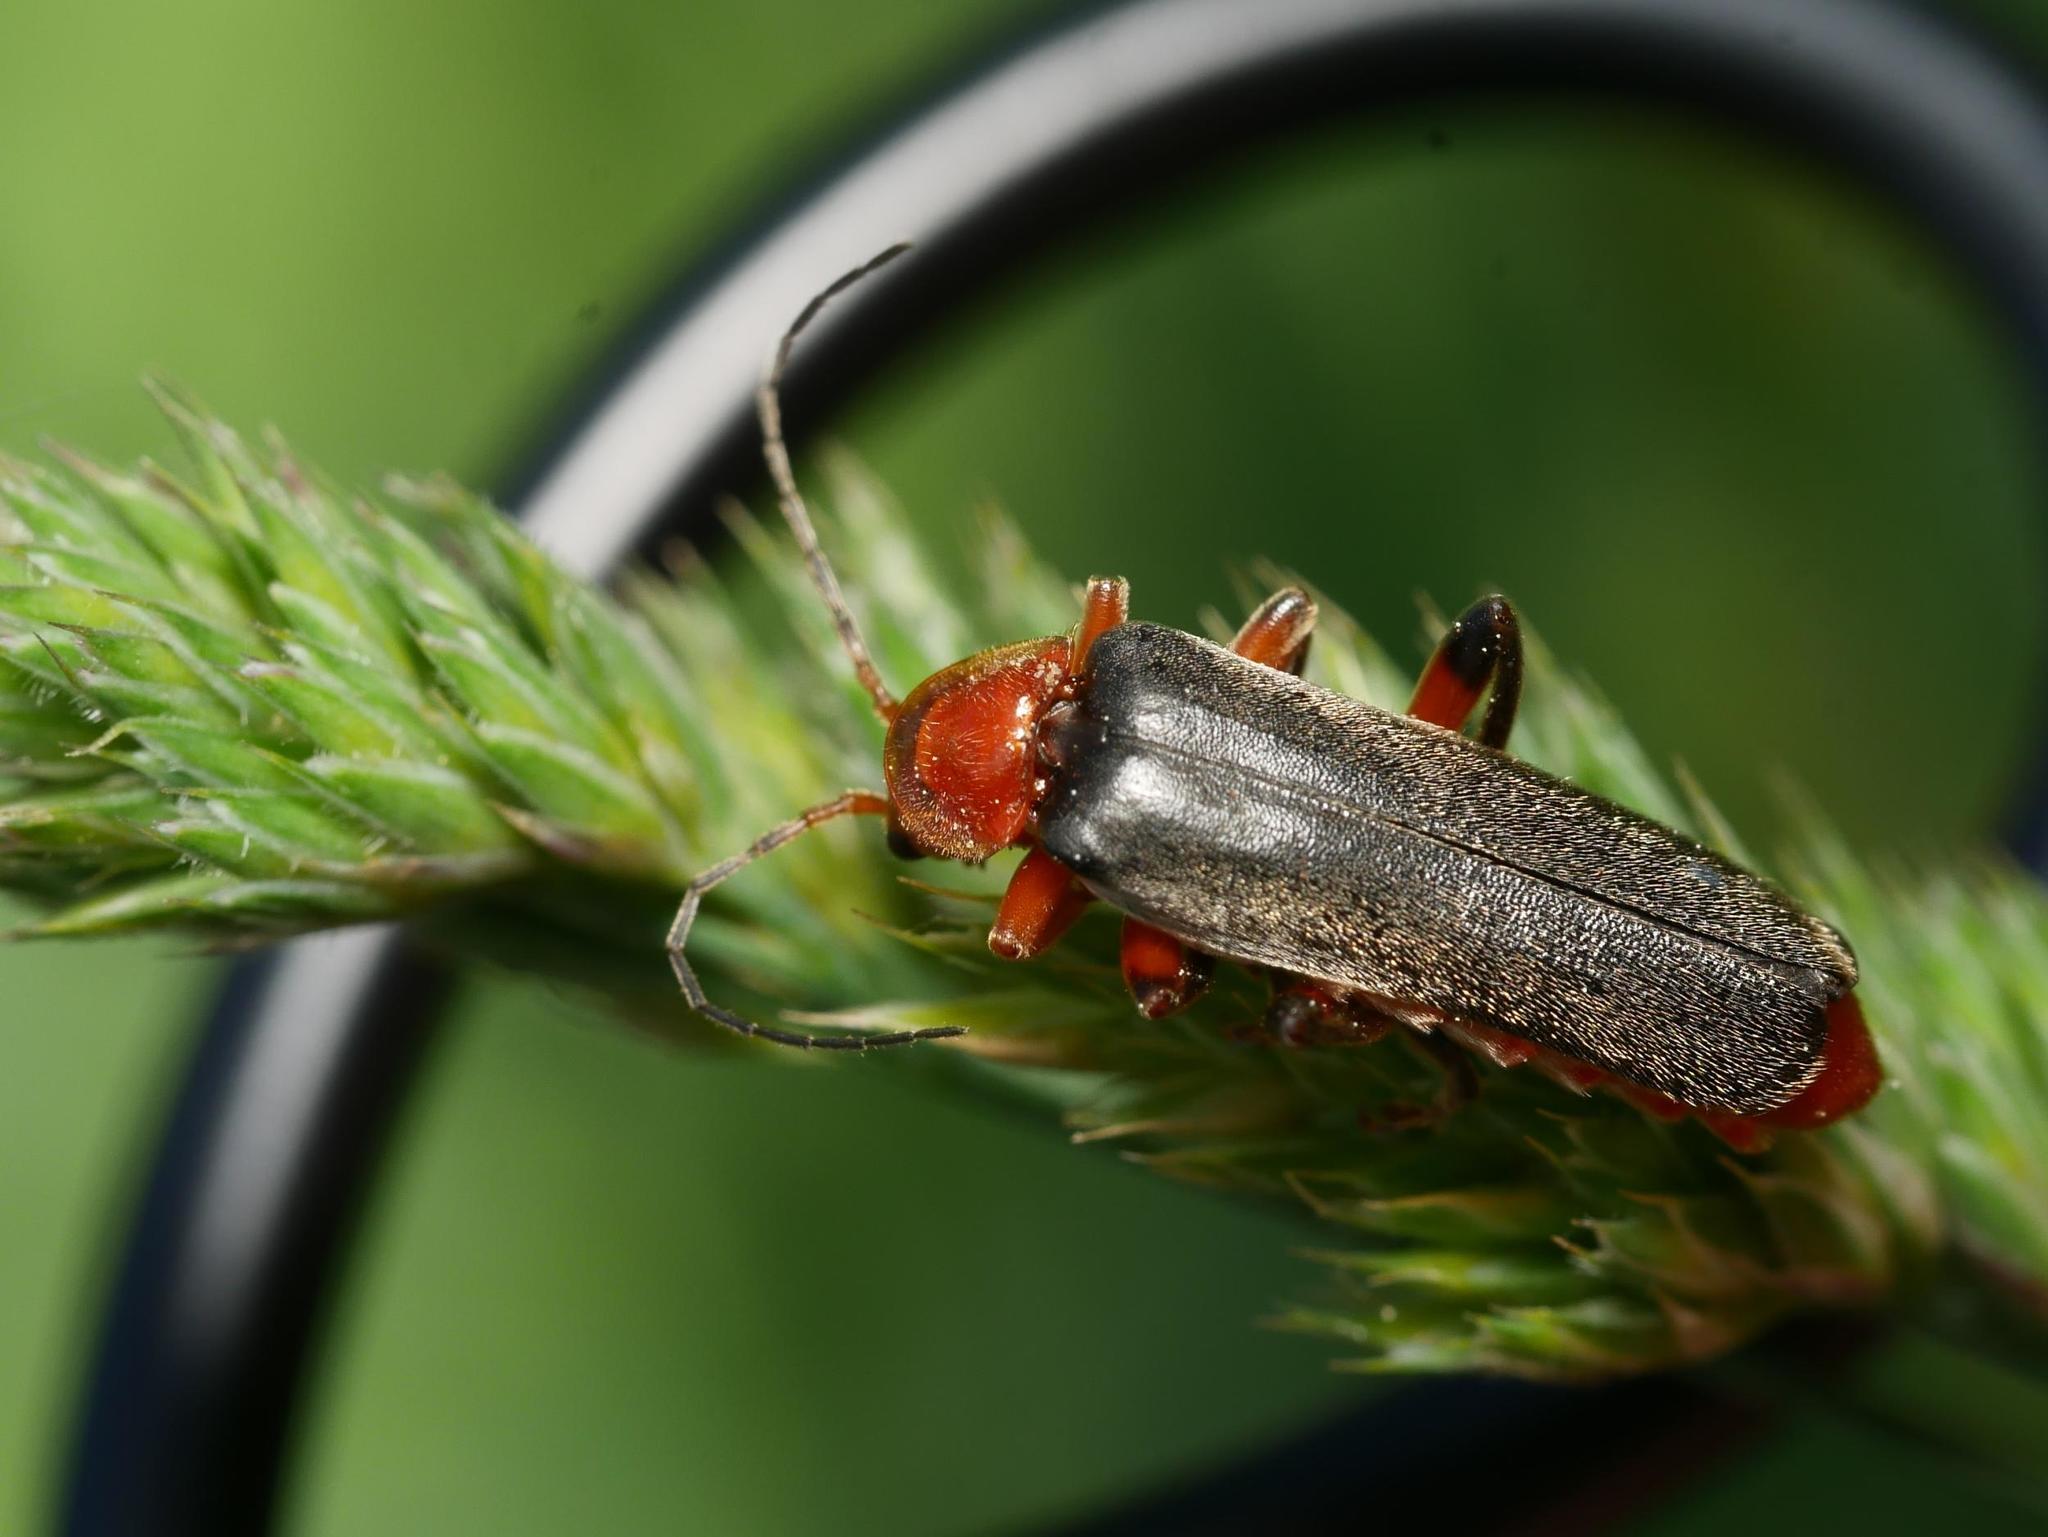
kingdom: Animalia
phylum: Arthropoda
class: Insecta
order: Coleoptera
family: Cantharidae
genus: Cantharis
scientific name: Cantharis livida
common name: Livid soldier beetle
